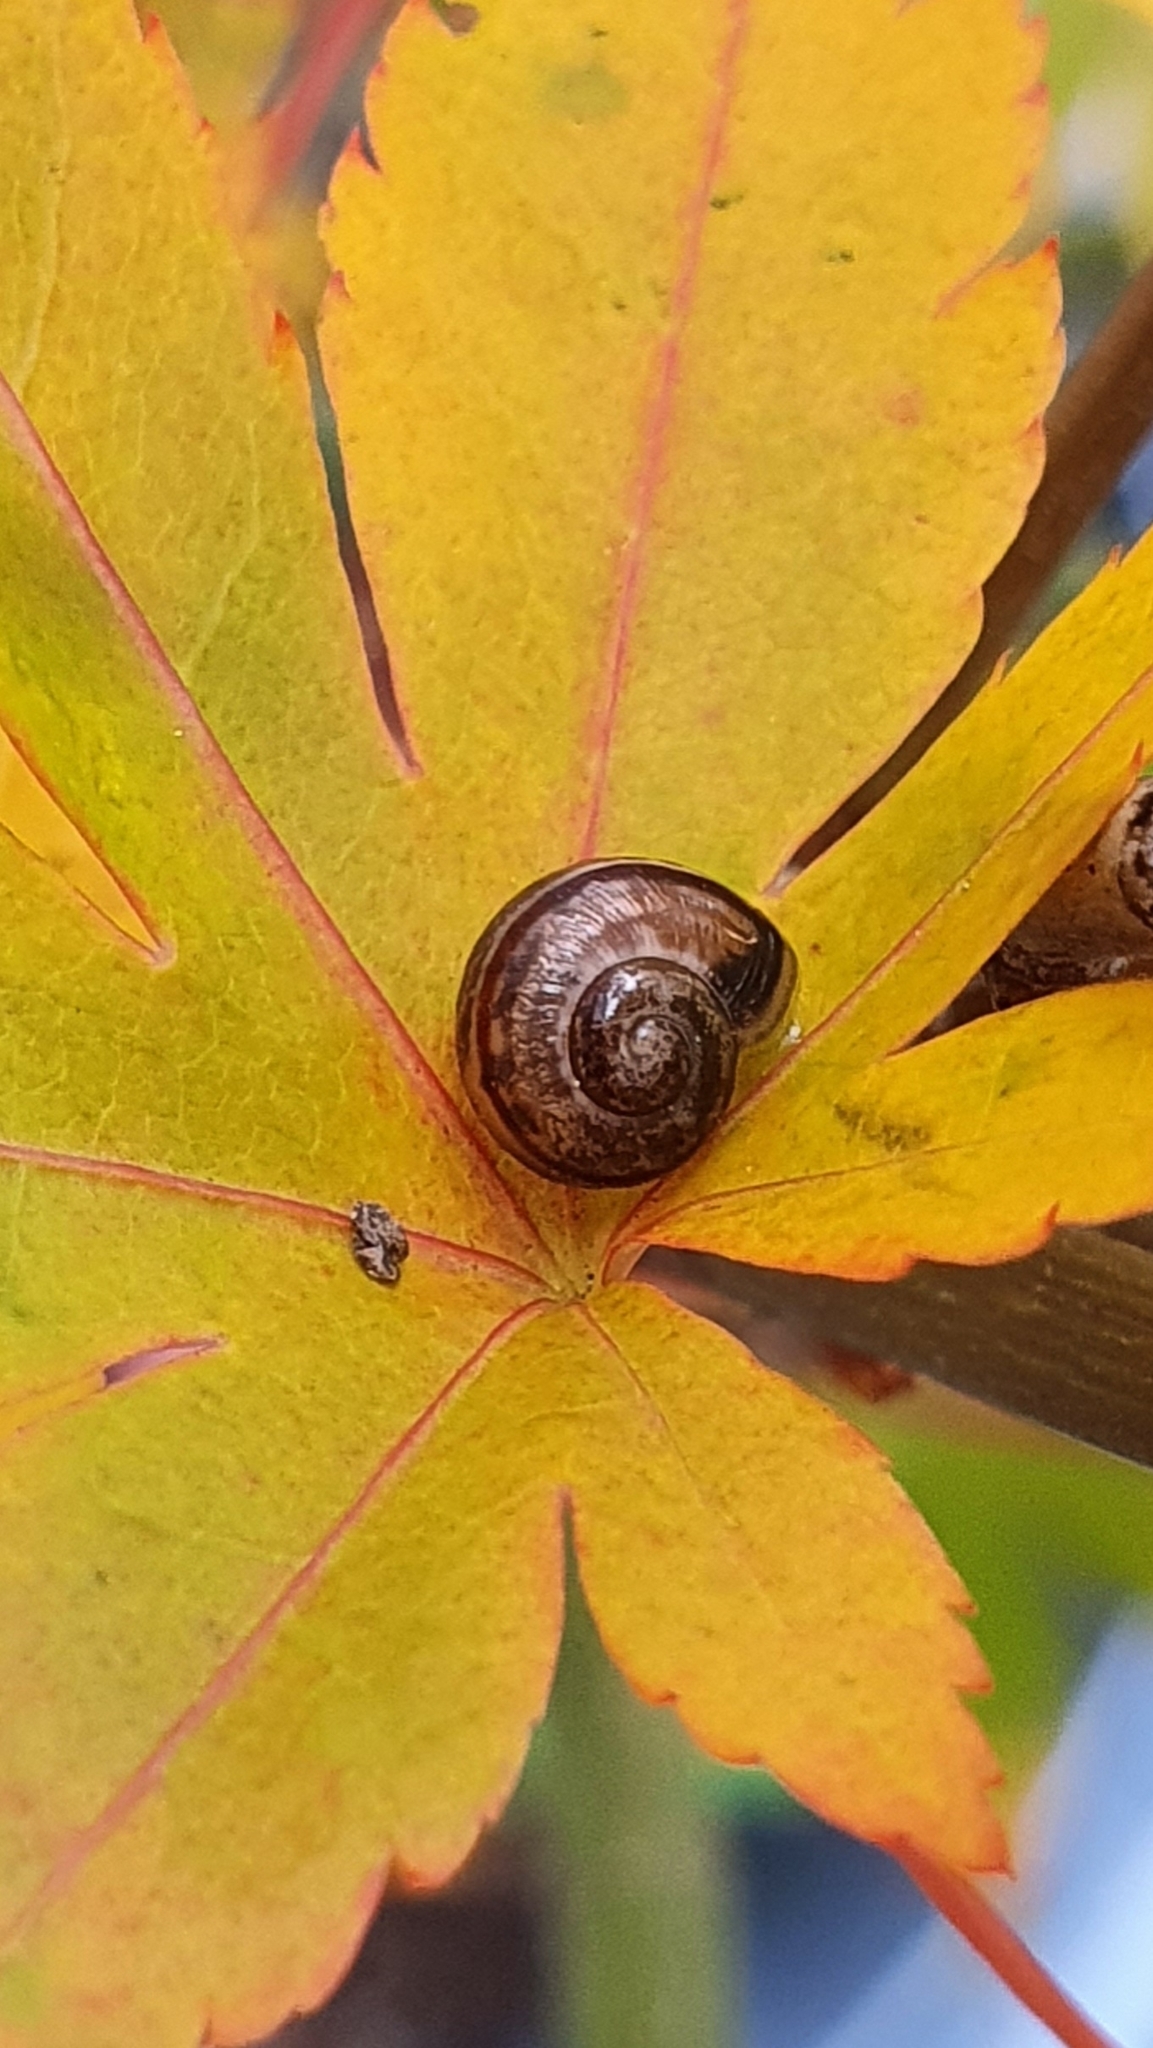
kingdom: Animalia
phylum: Mollusca
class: Gastropoda
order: Stylommatophora
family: Helicidae
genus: Arianta
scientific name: Arianta arbustorum
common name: Copse snail
